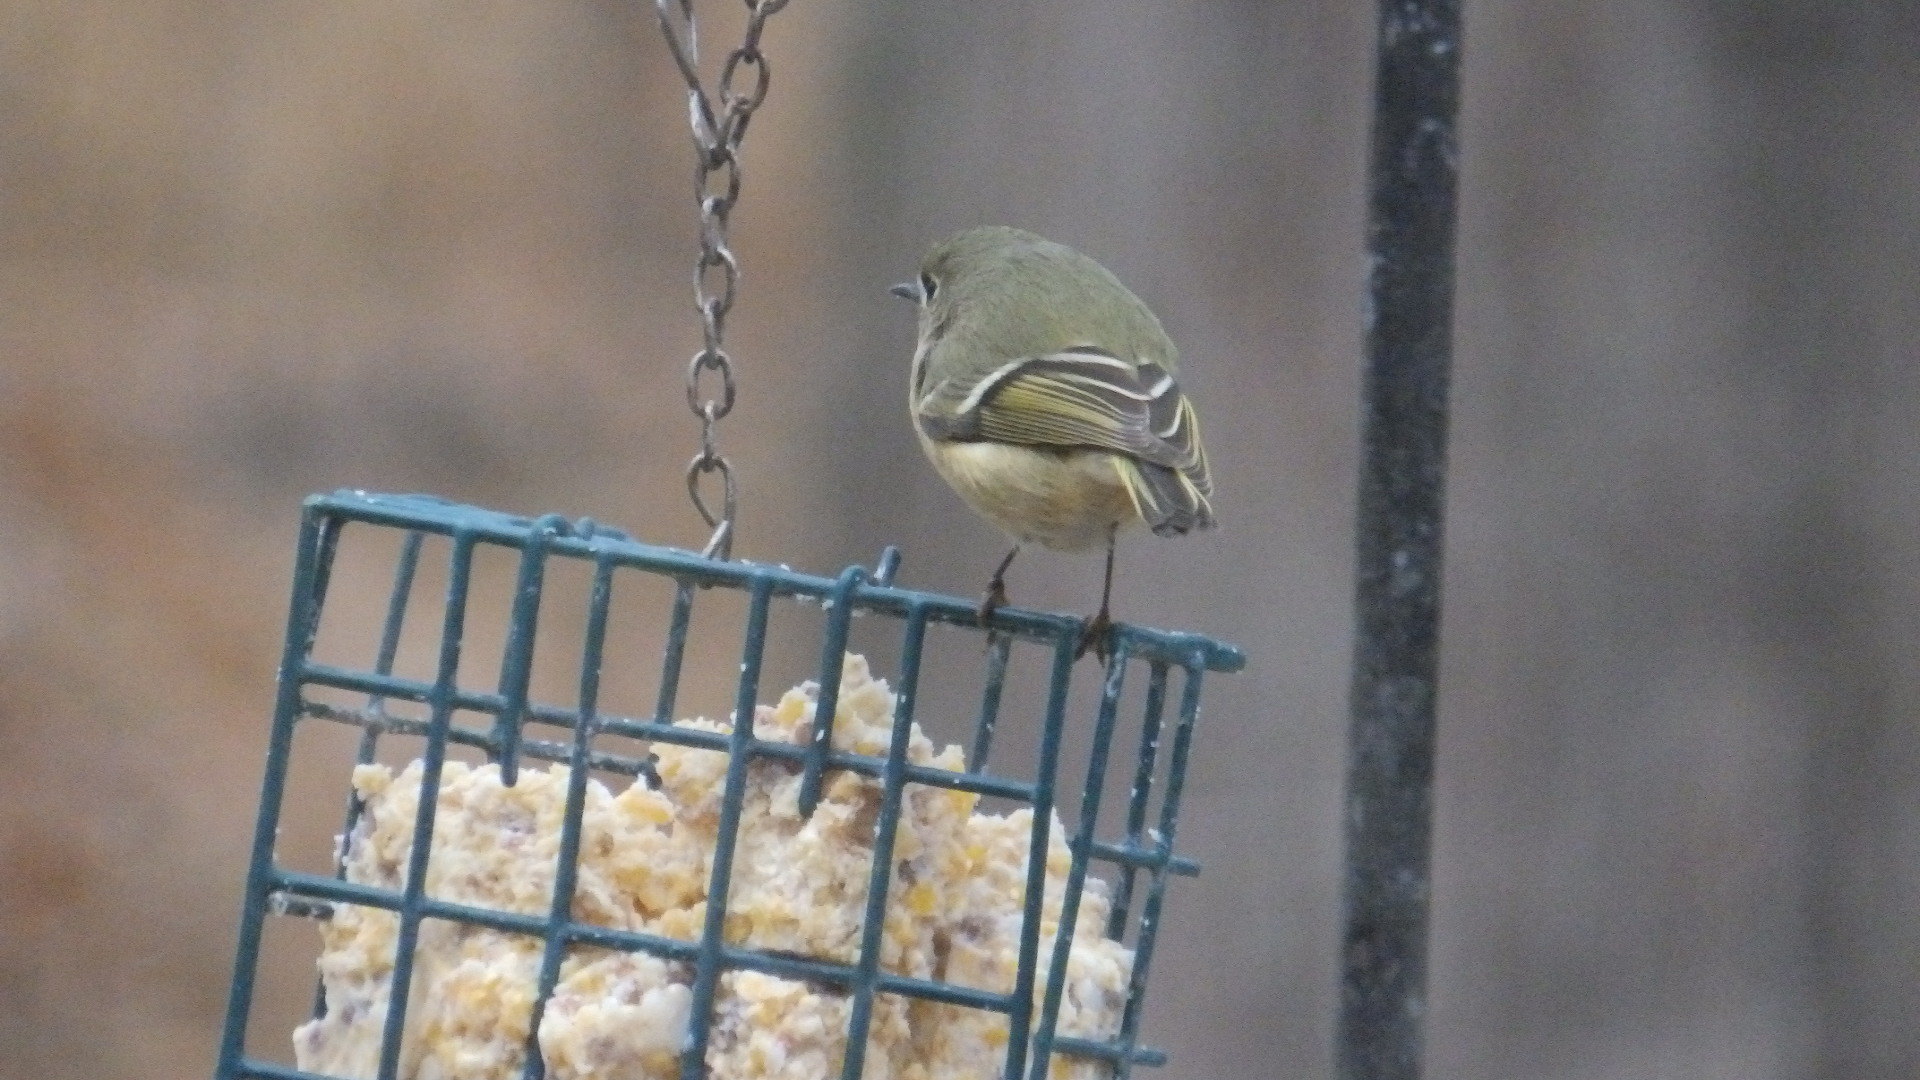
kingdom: Animalia
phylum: Chordata
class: Aves
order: Passeriformes
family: Regulidae
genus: Regulus
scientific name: Regulus calendula
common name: Ruby-crowned kinglet
